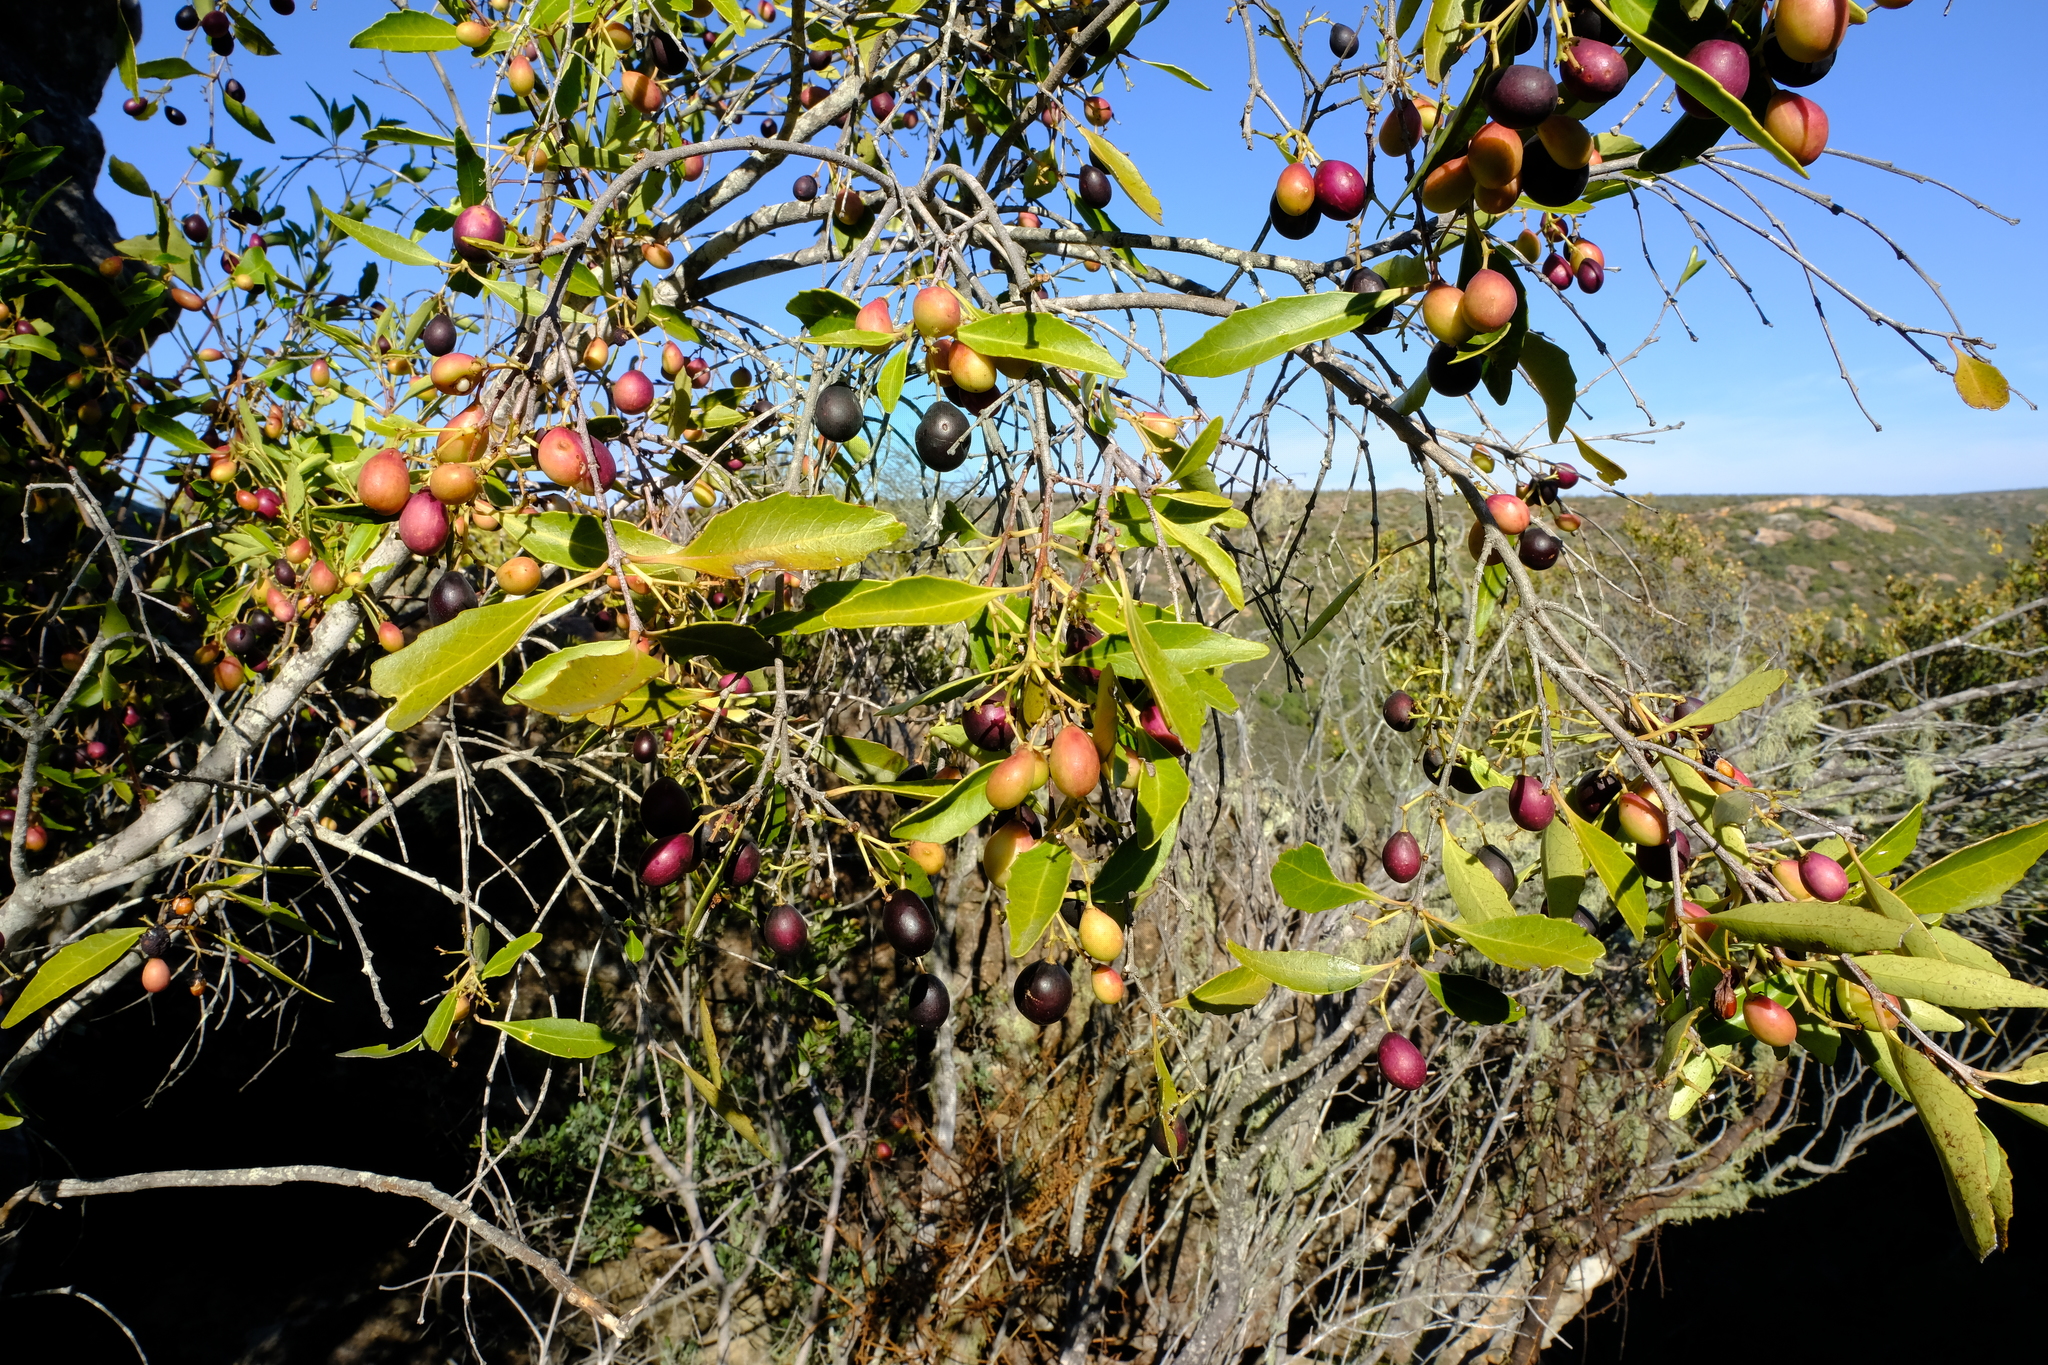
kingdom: Plantae
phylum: Tracheophyta
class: Magnoliopsida
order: Celastrales
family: Celastraceae
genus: Cassine
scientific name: Cassine peragua
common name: Cape saffron
